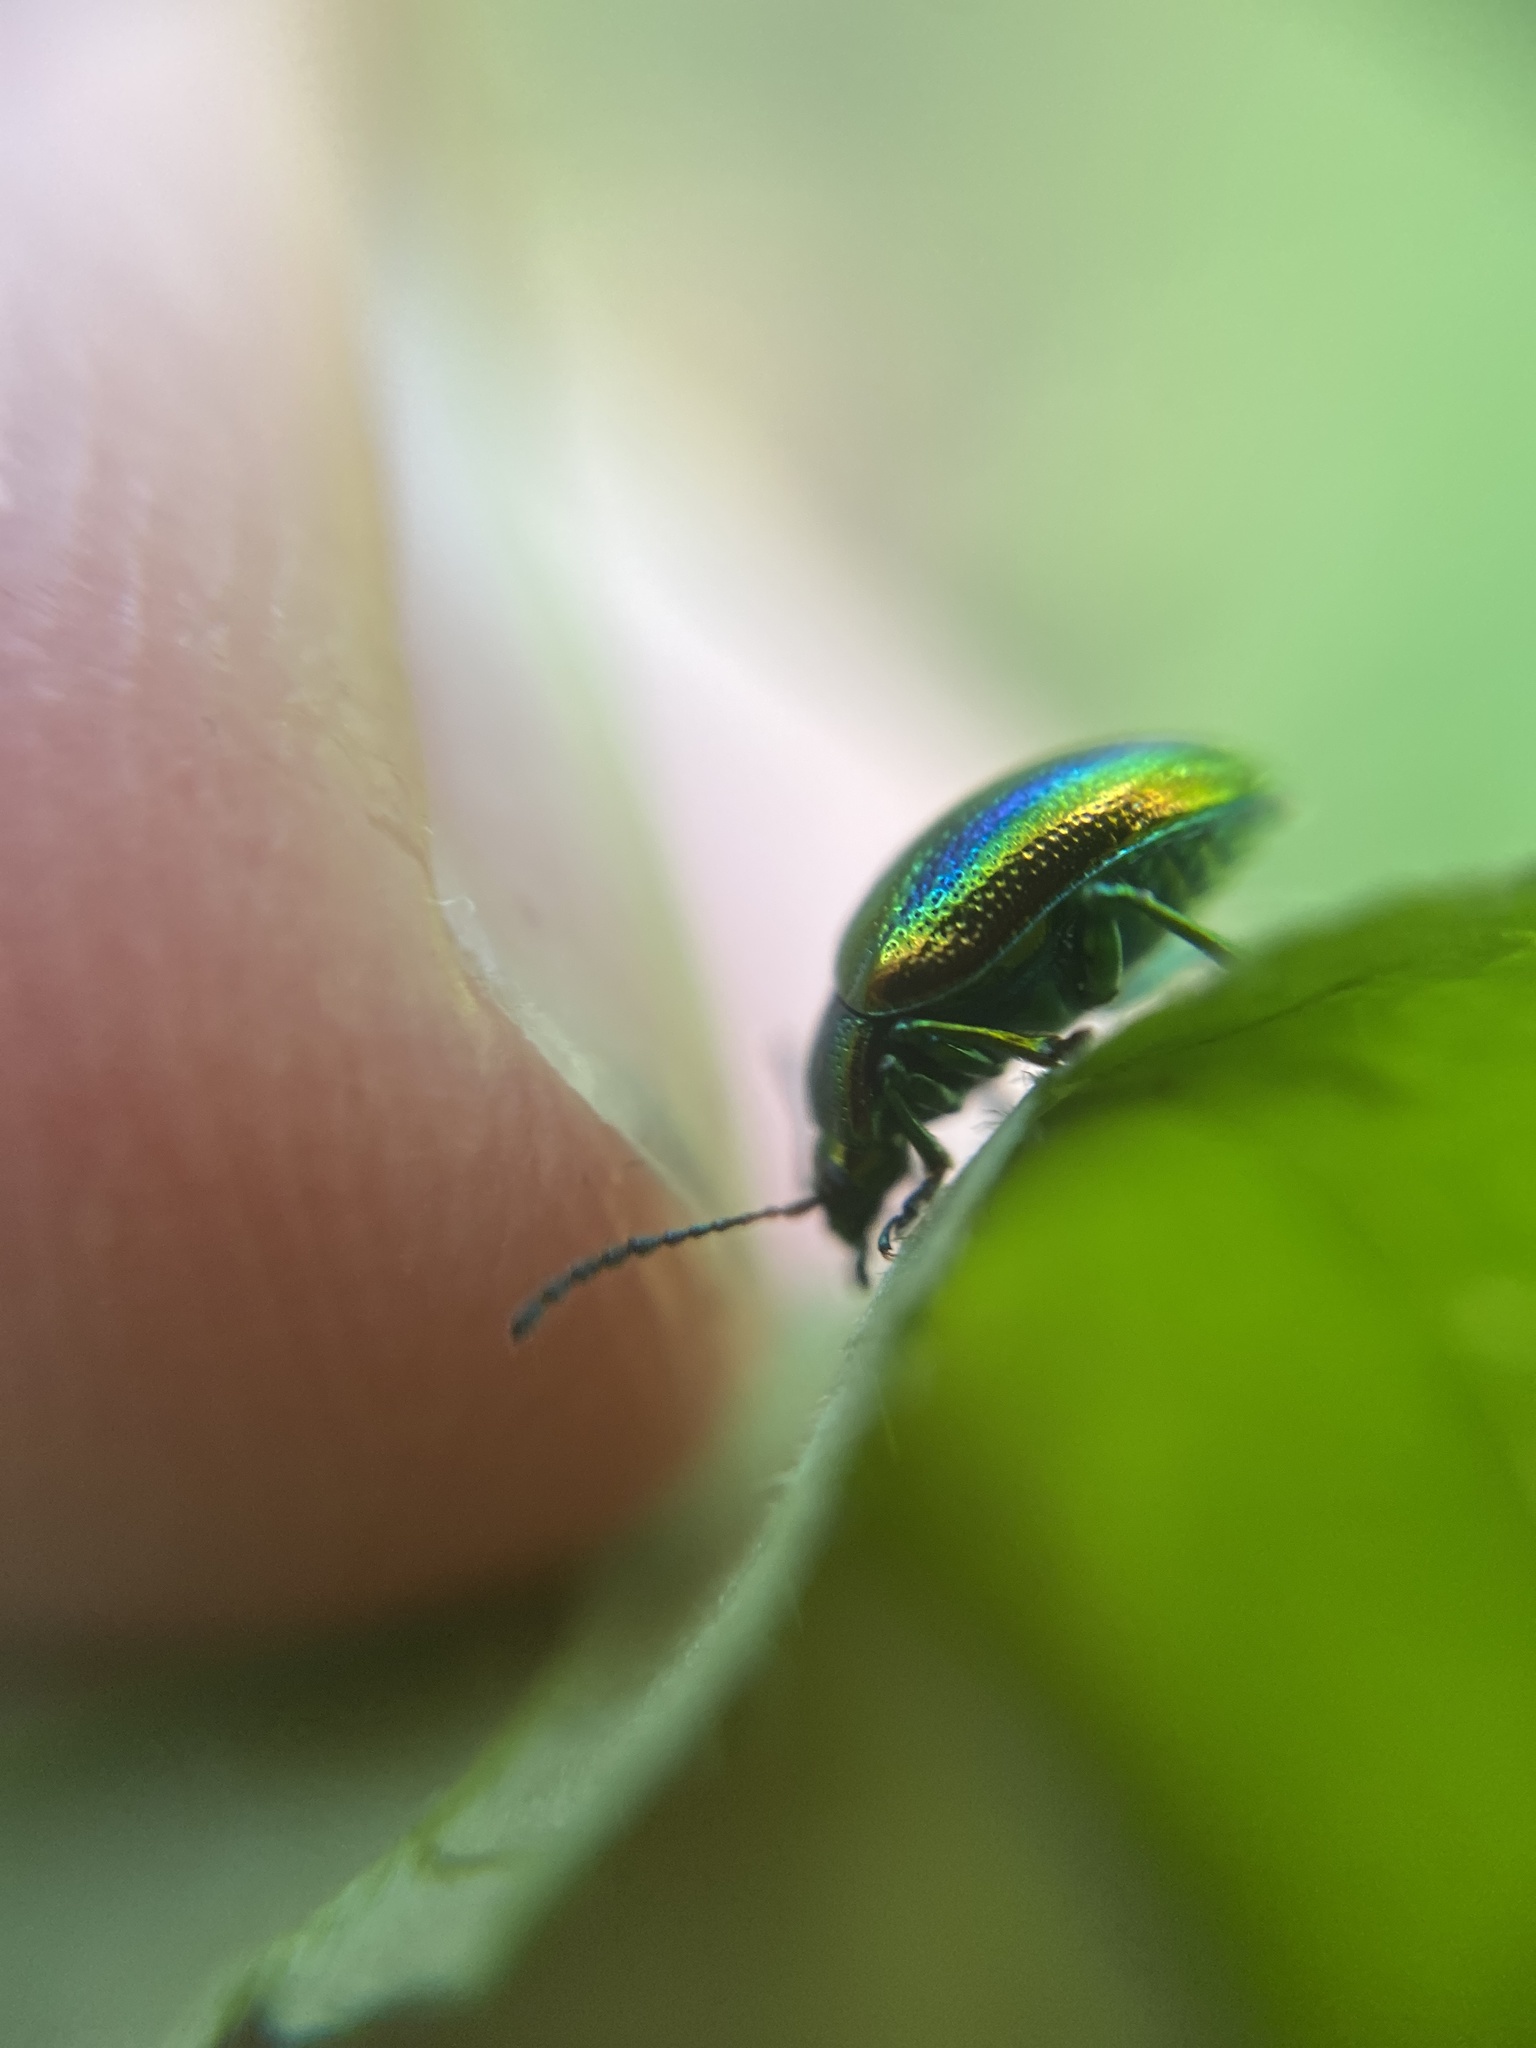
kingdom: Animalia
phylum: Arthropoda
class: Insecta
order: Coleoptera
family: Chrysomelidae
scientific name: Chrysomelidae
